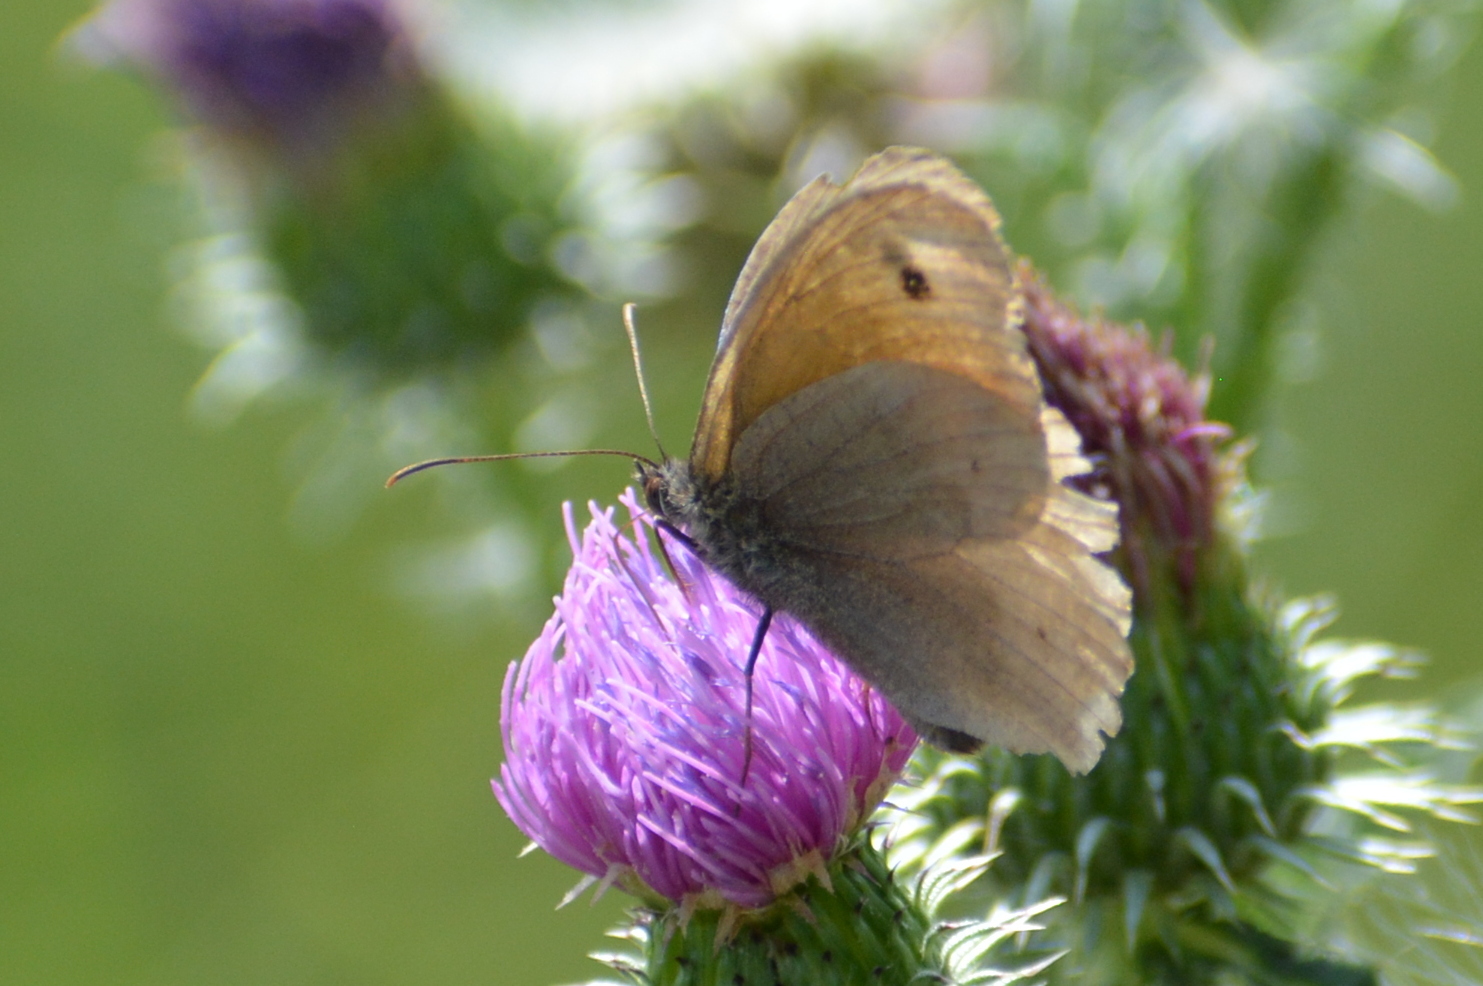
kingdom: Animalia
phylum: Arthropoda
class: Insecta
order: Lepidoptera
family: Nymphalidae
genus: Maniola
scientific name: Maniola jurtina
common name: Meadow brown
